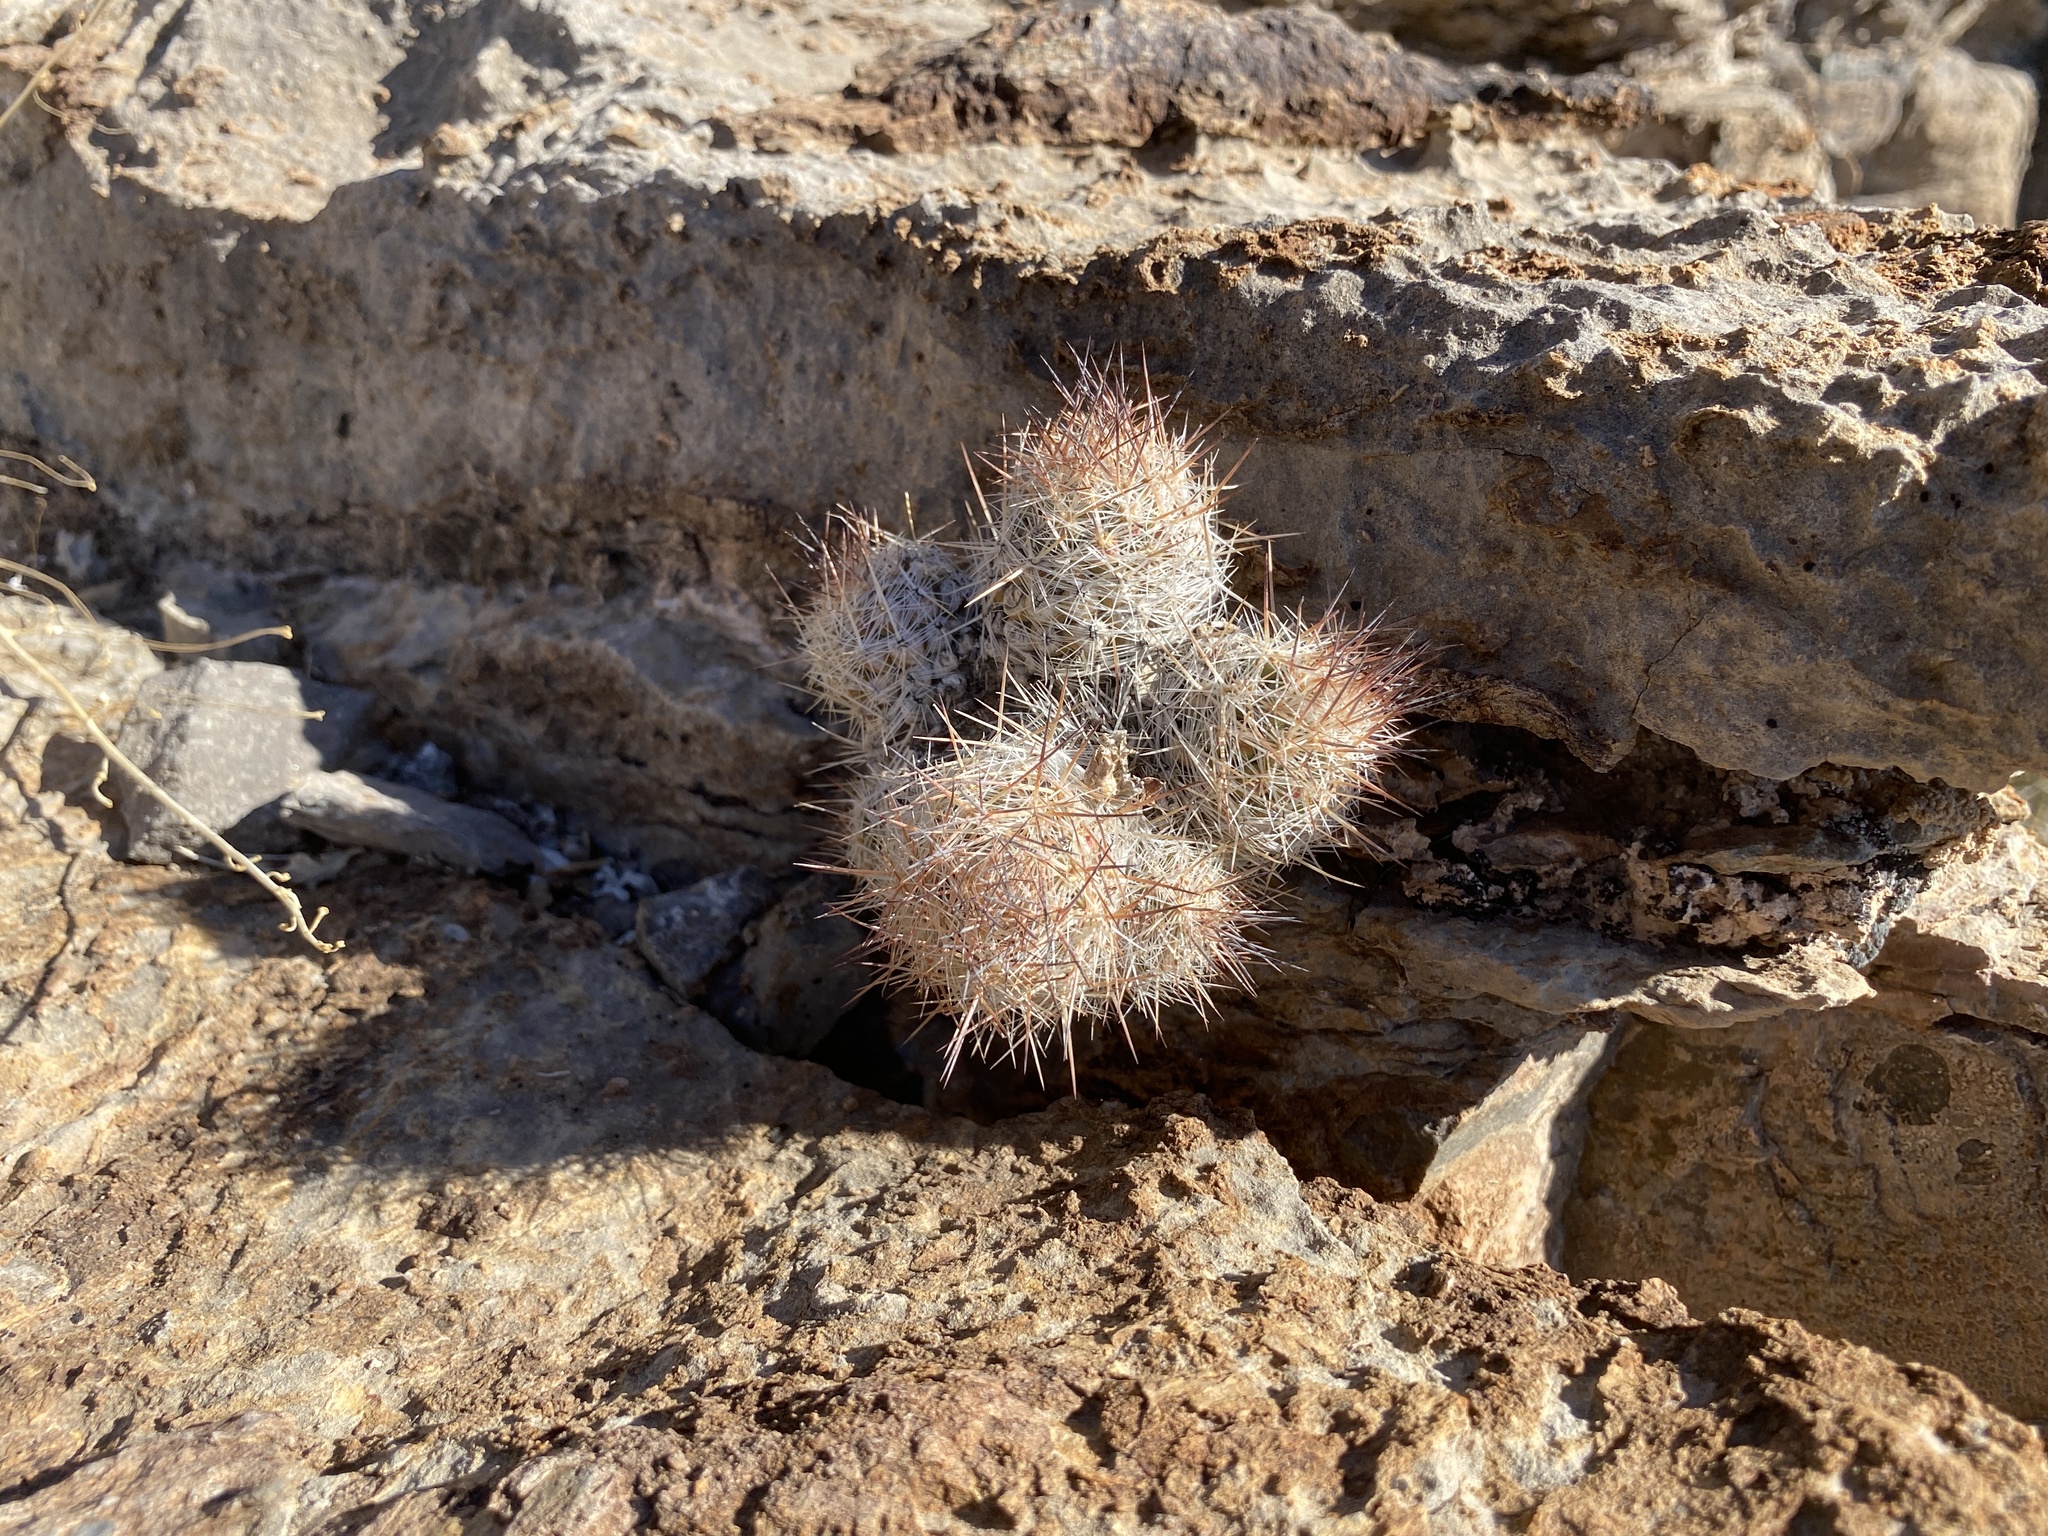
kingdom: Plantae
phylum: Tracheophyta
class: Magnoliopsida
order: Caryophyllales
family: Cactaceae
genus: Pelecyphora
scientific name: Pelecyphora tuberculosa
